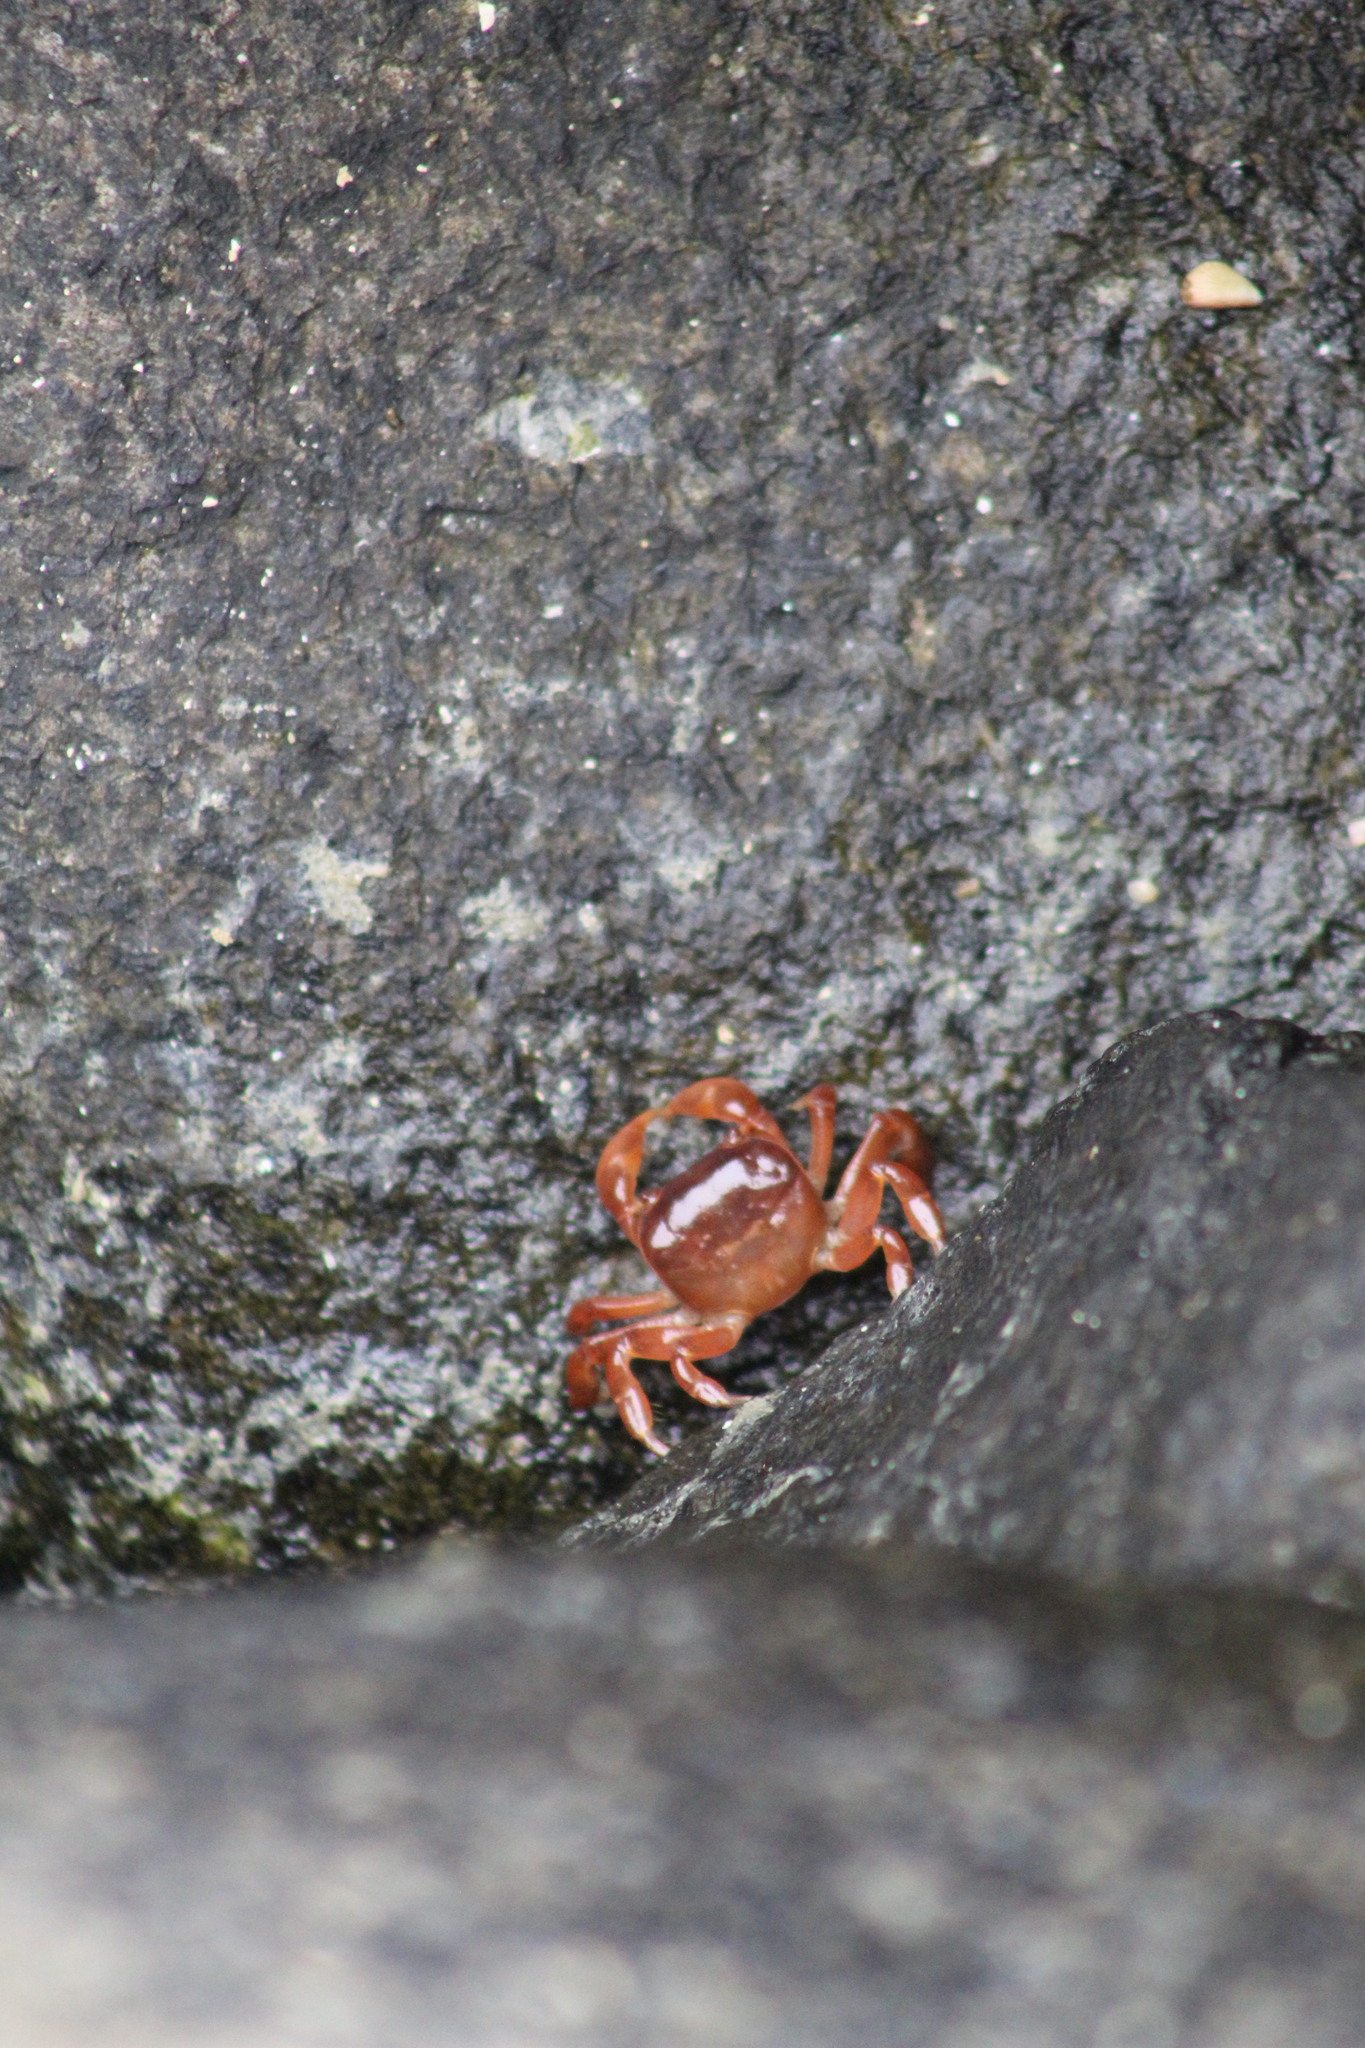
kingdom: Animalia
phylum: Arthropoda
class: Malacostraca
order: Decapoda
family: Varunidae
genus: Cyclograpsus
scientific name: Cyclograpsus cinereus
